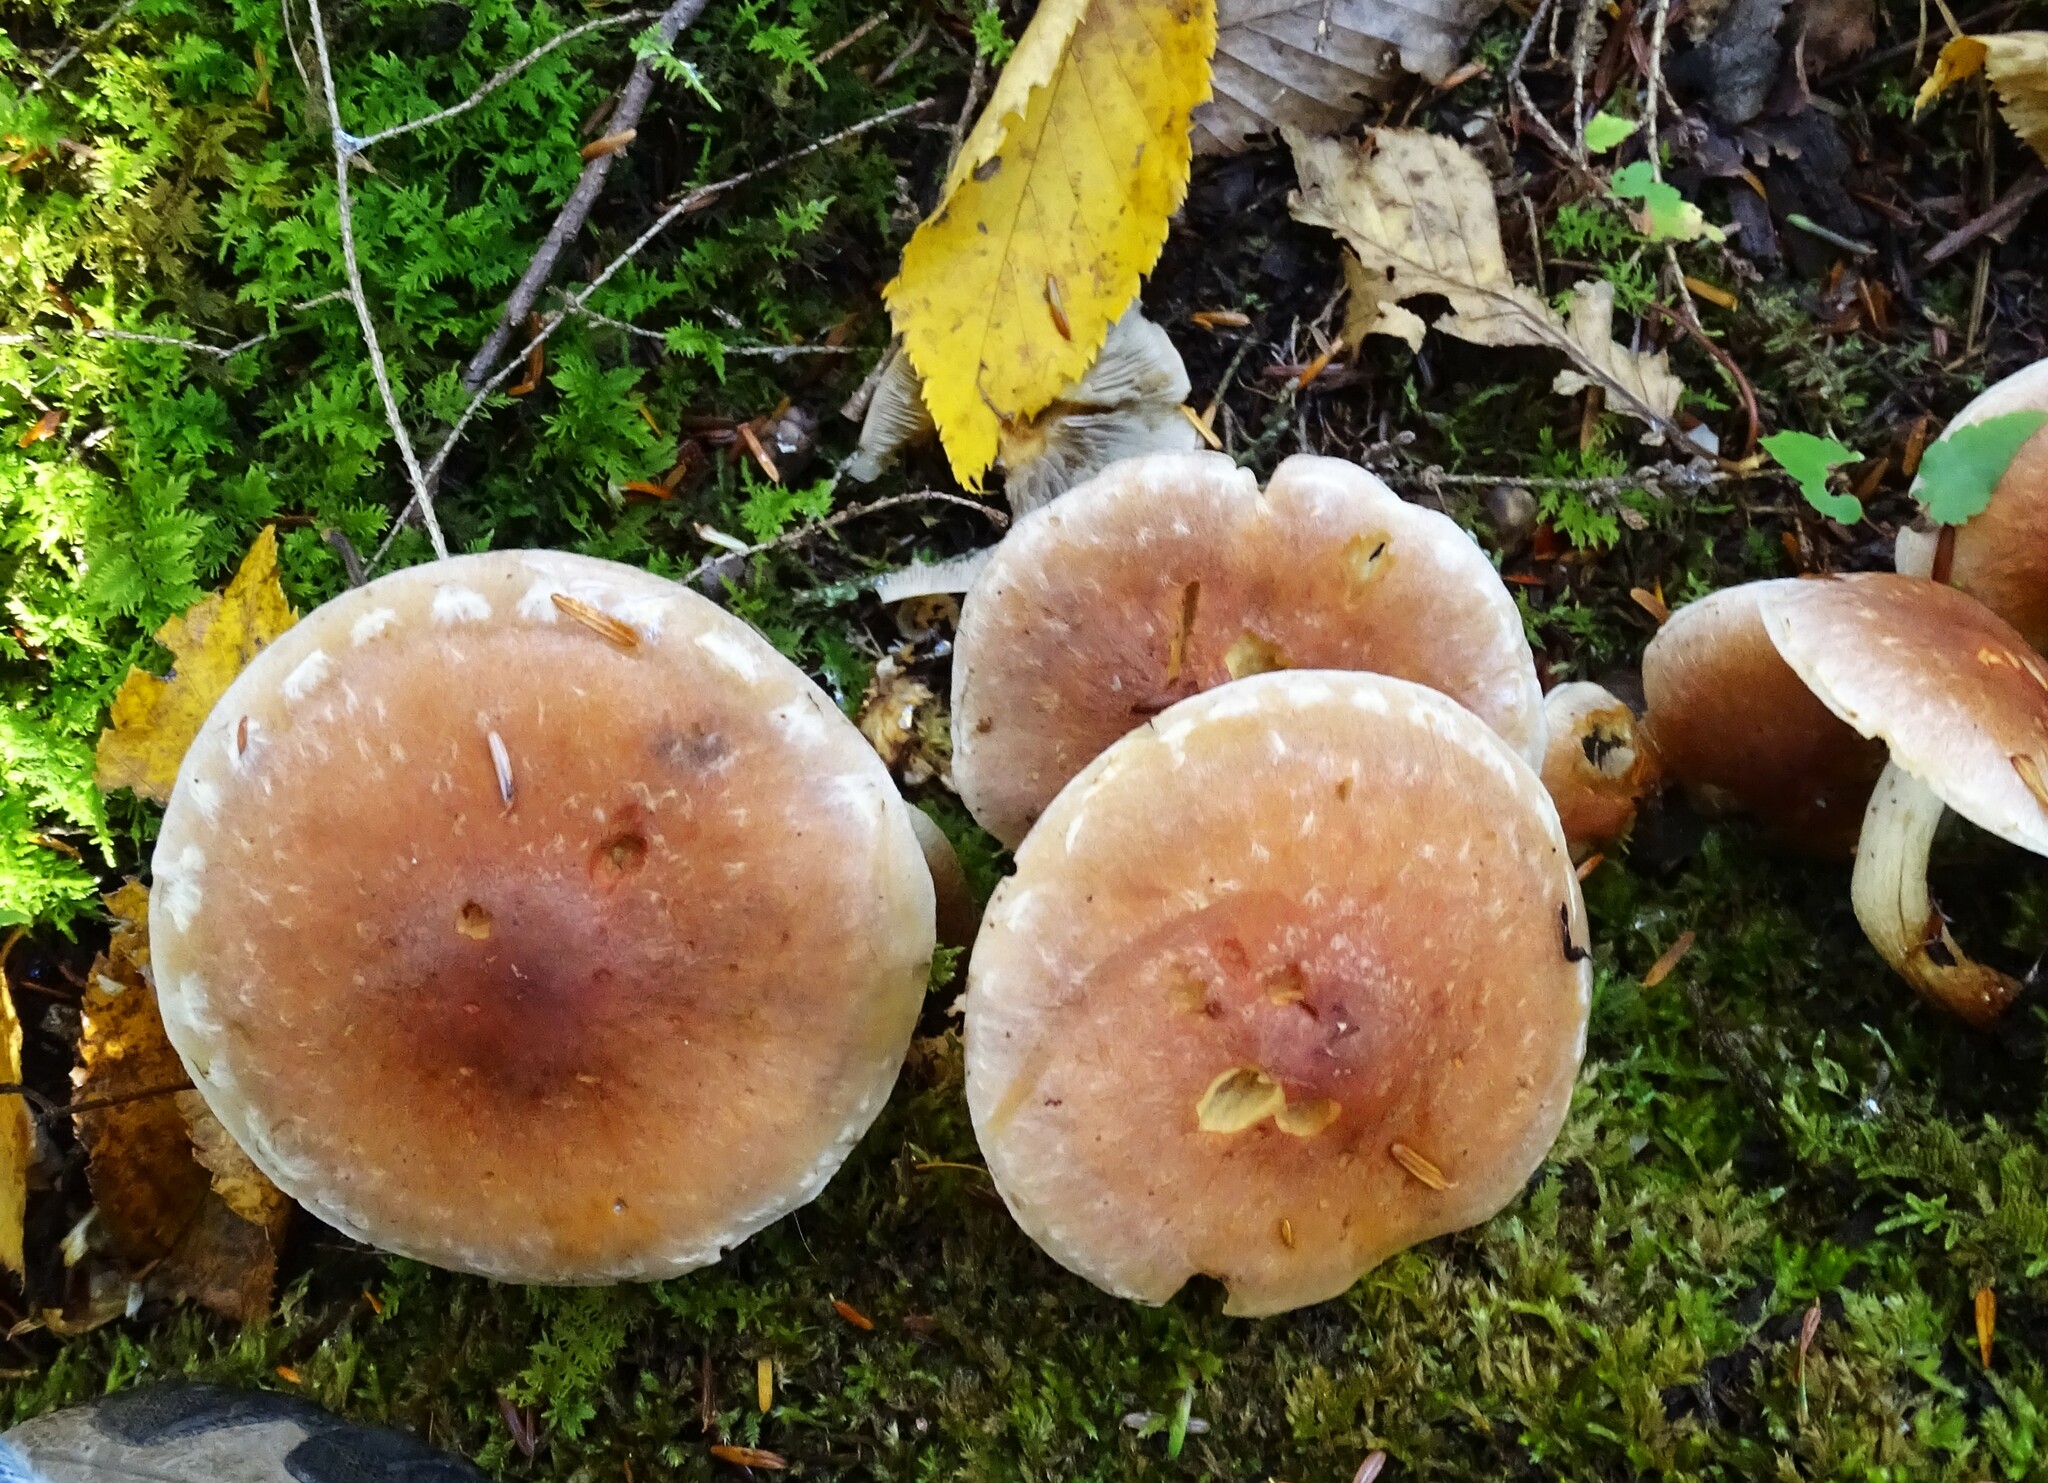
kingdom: Fungi
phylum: Basidiomycota
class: Agaricomycetes
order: Agaricales
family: Strophariaceae
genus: Hypholoma
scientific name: Hypholoma lateritium
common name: Brick caps
